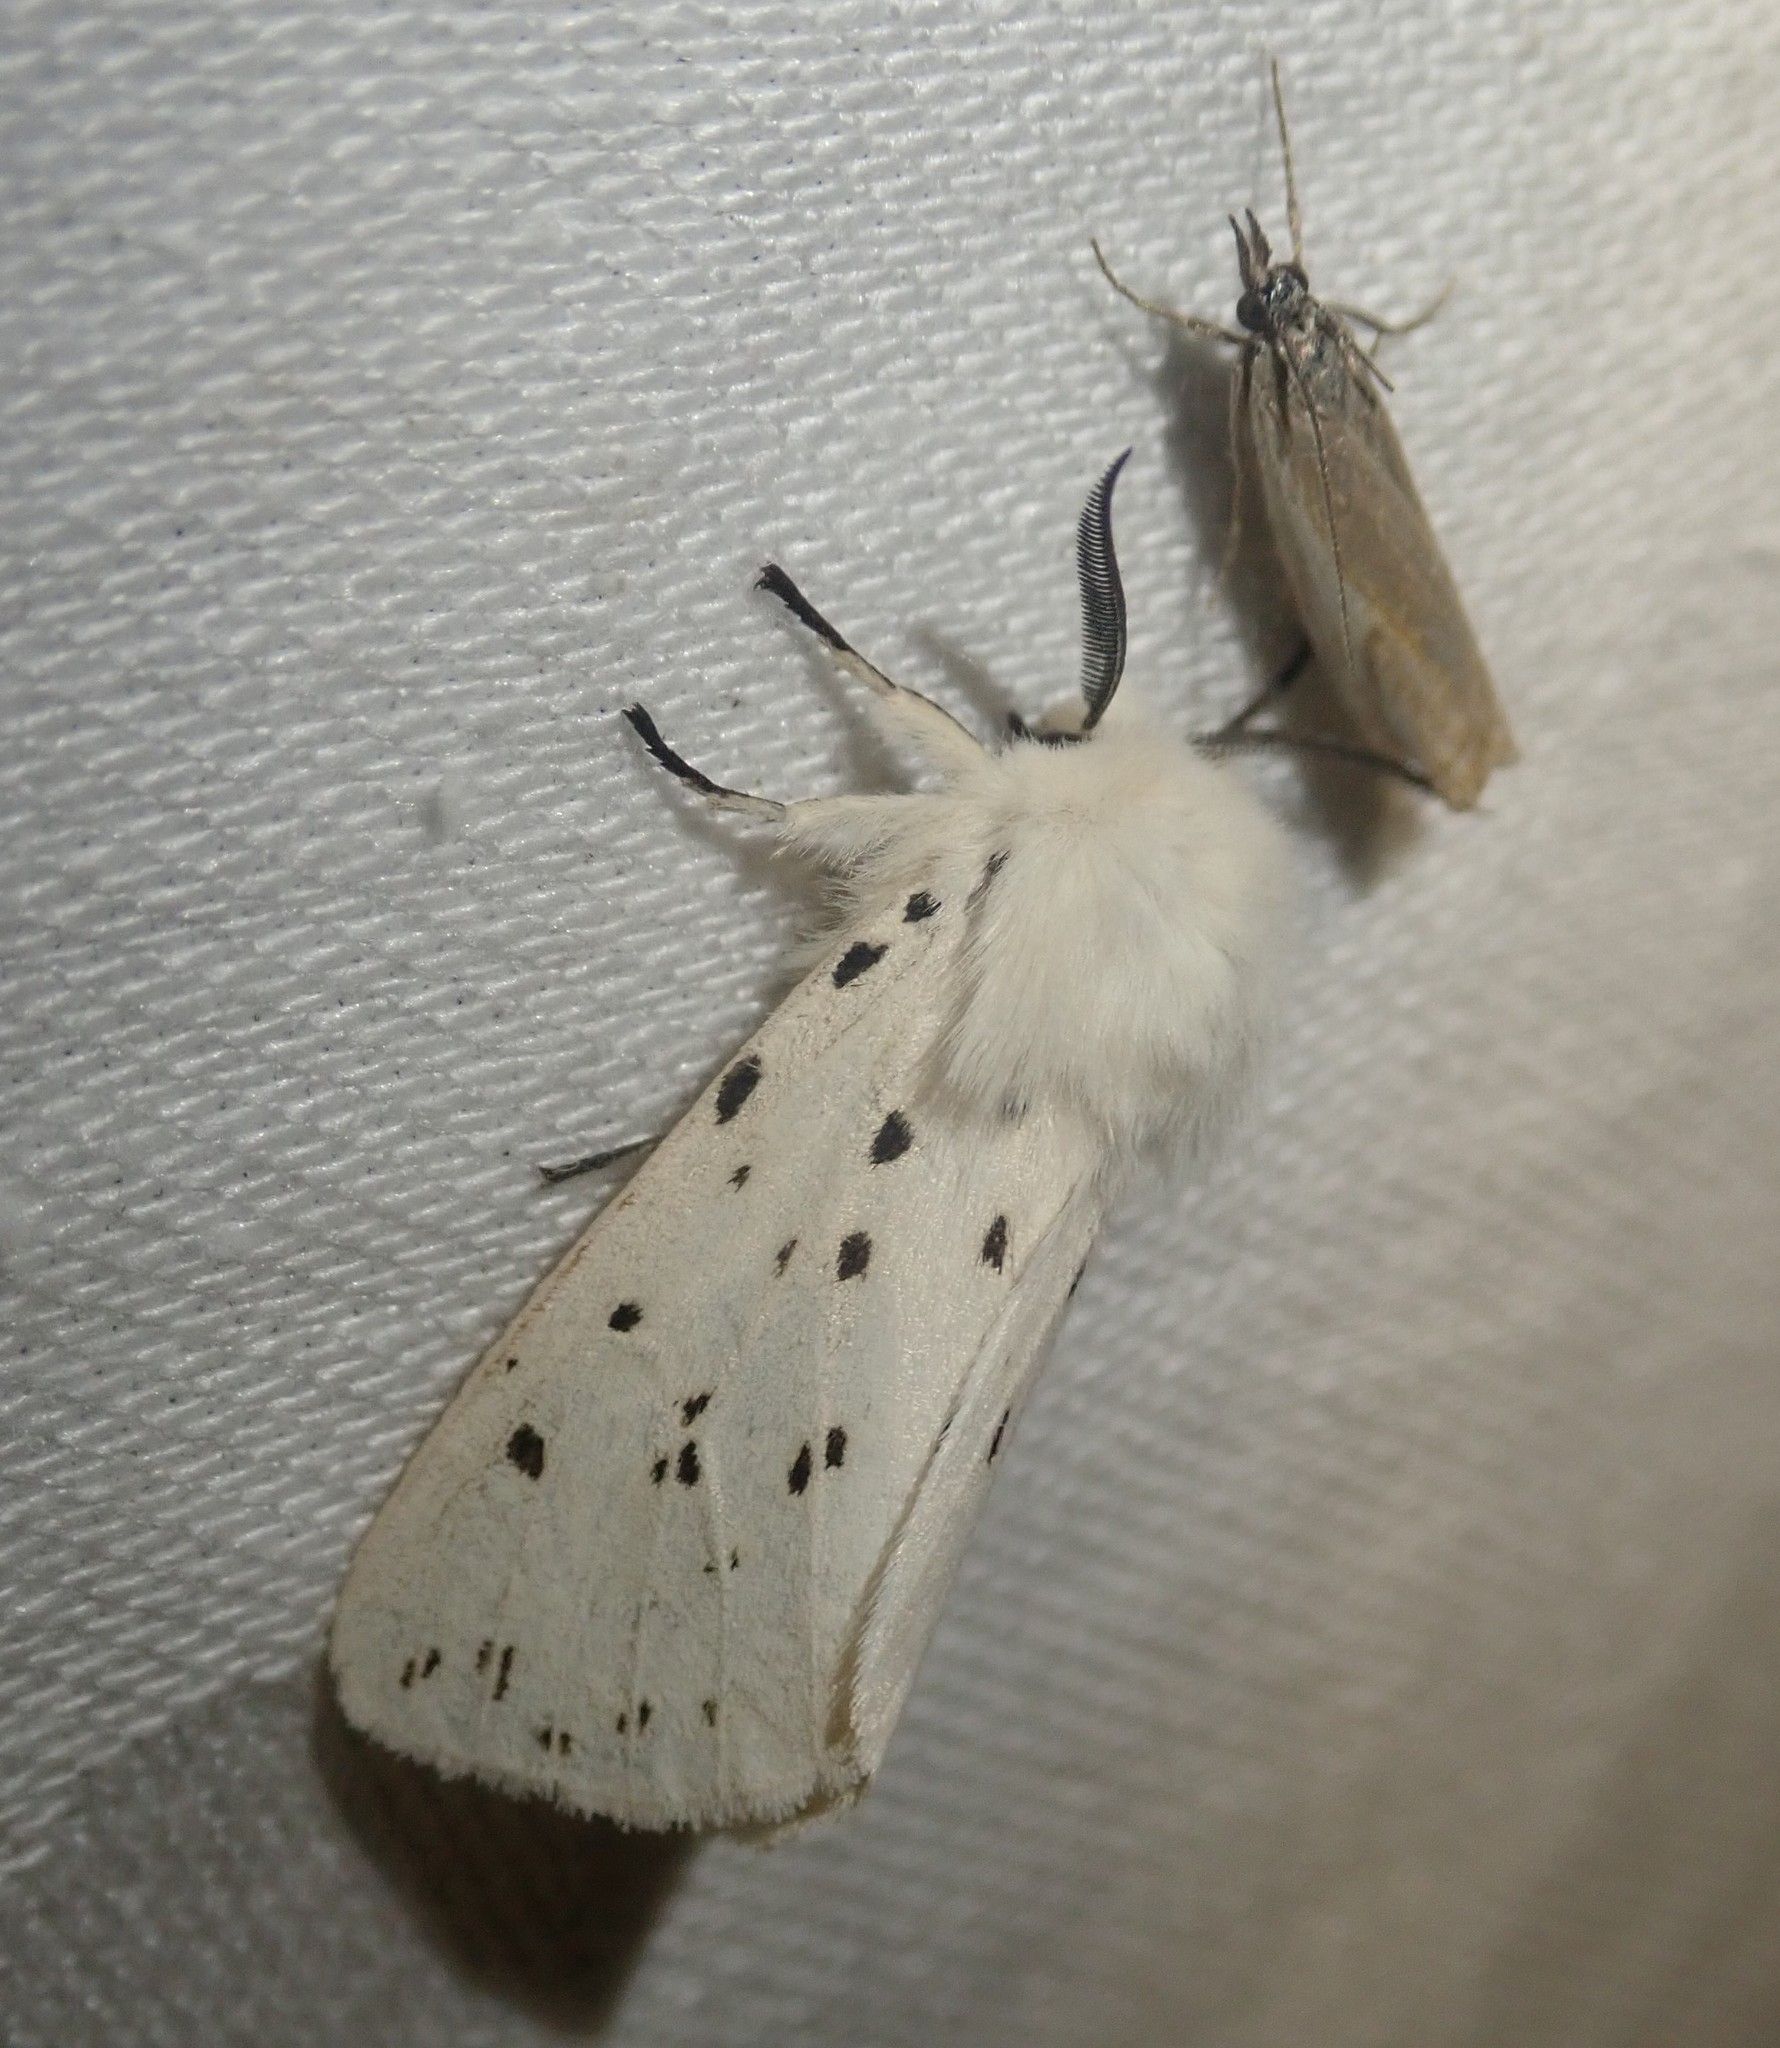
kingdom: Animalia
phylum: Arthropoda
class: Insecta
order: Lepidoptera
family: Erebidae
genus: Spilosoma
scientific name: Spilosoma lubricipeda
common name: White ermine
